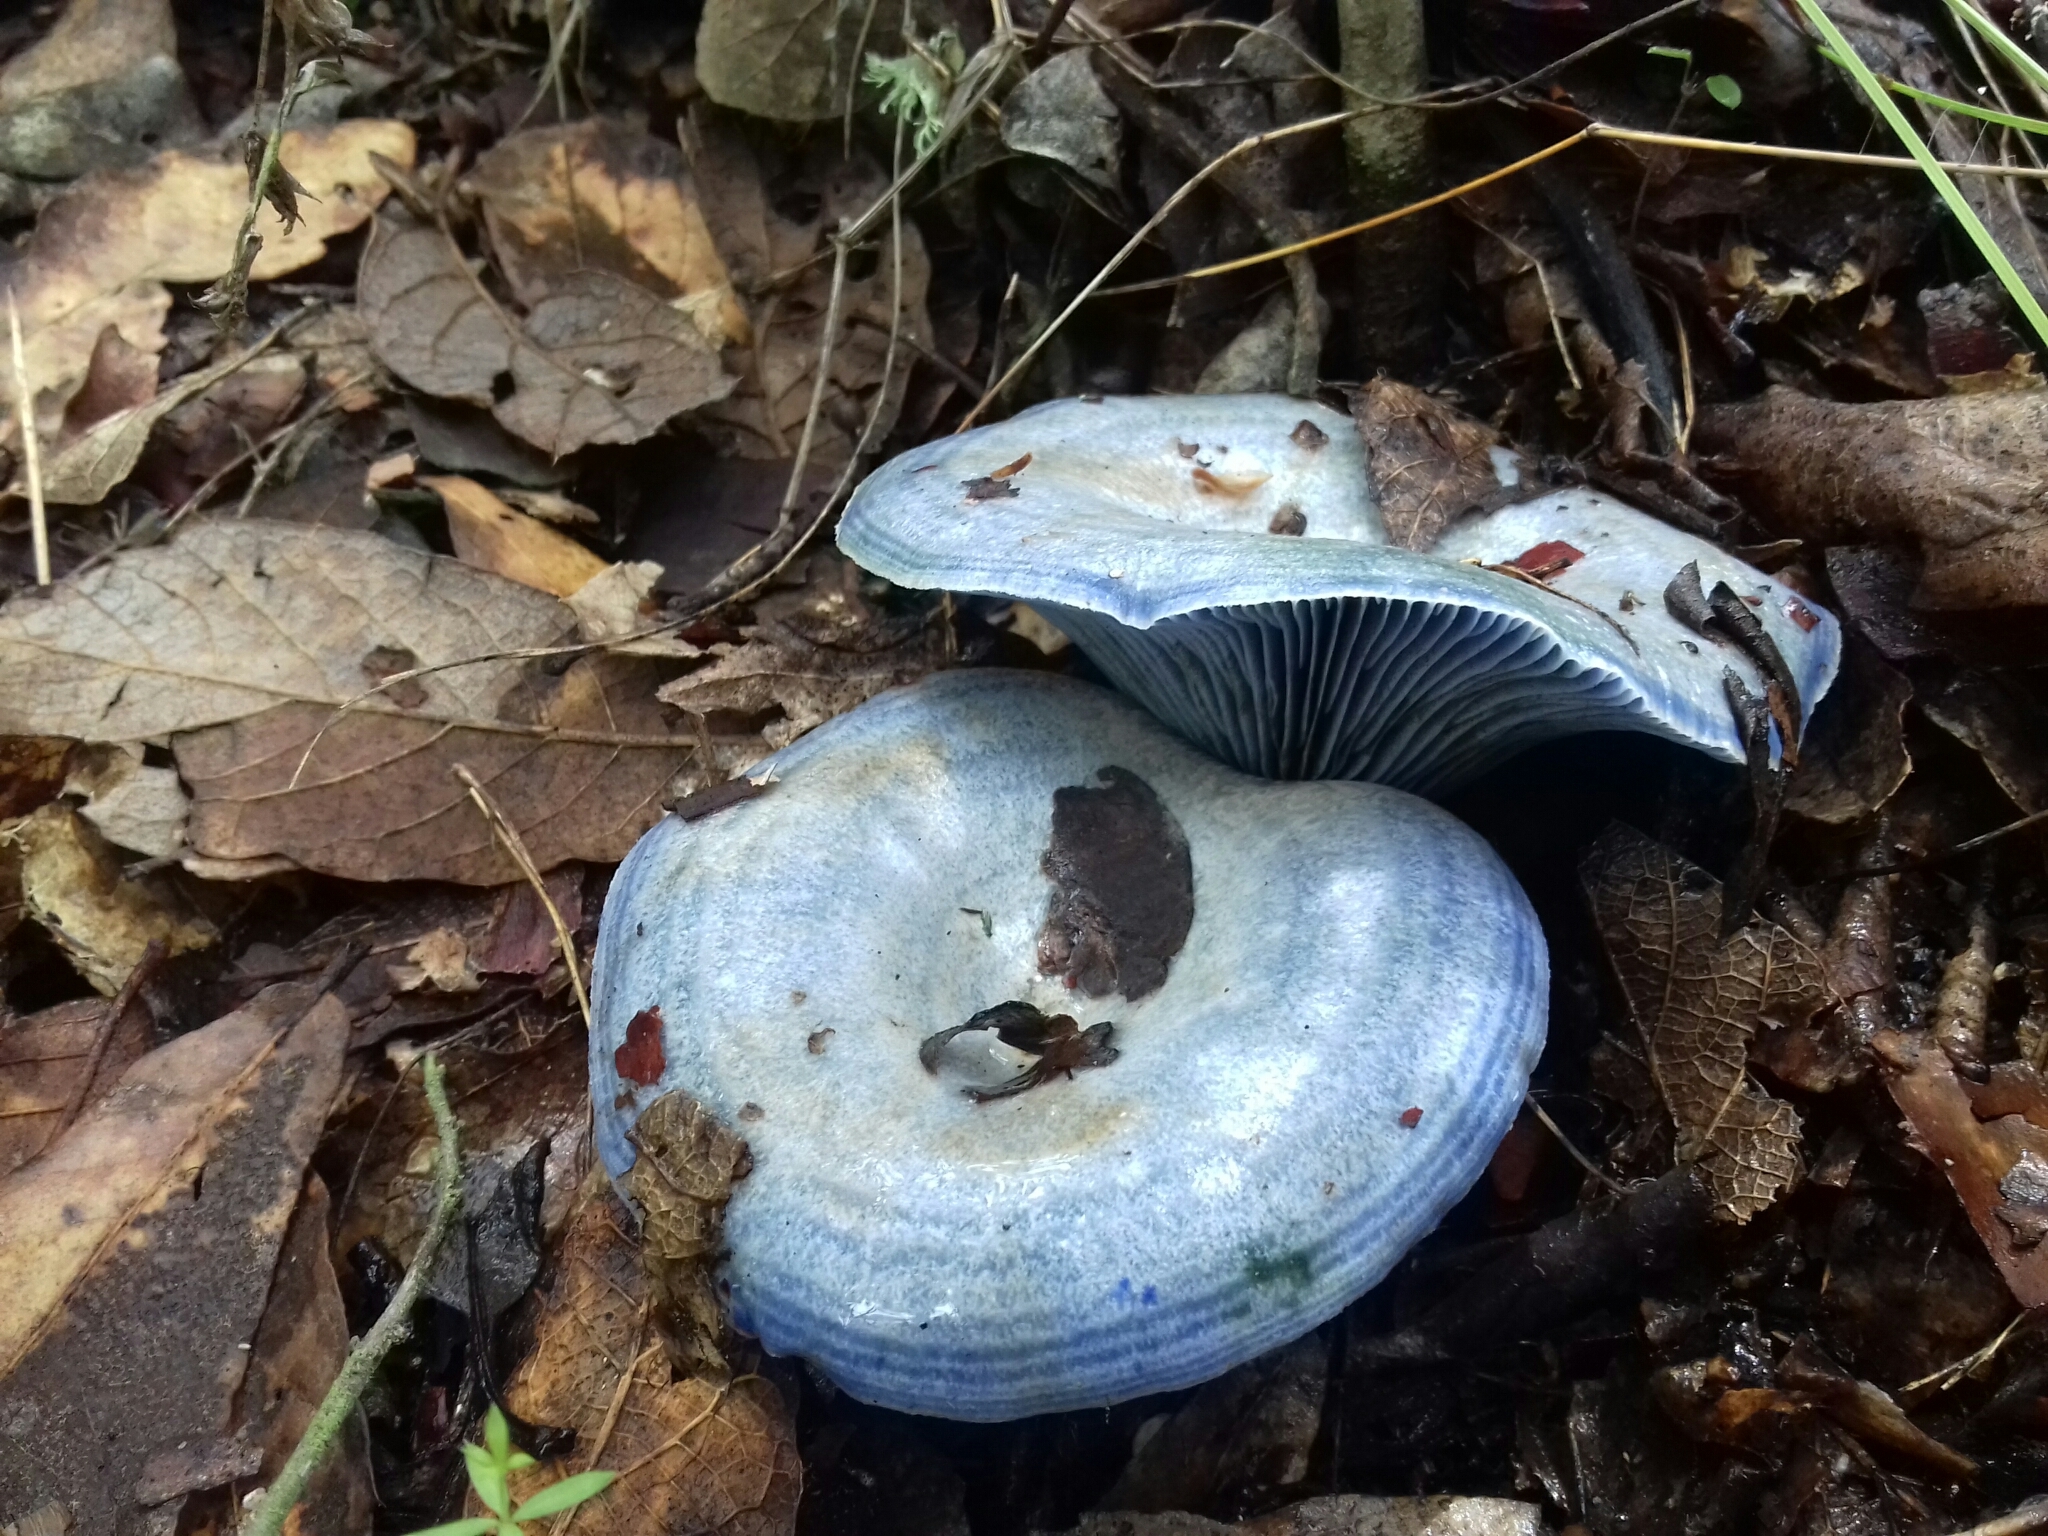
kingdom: Fungi
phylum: Basidiomycota
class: Agaricomycetes
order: Russulales
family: Russulaceae
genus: Lactarius
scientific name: Lactarius indigo
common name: Indigo milk cap
